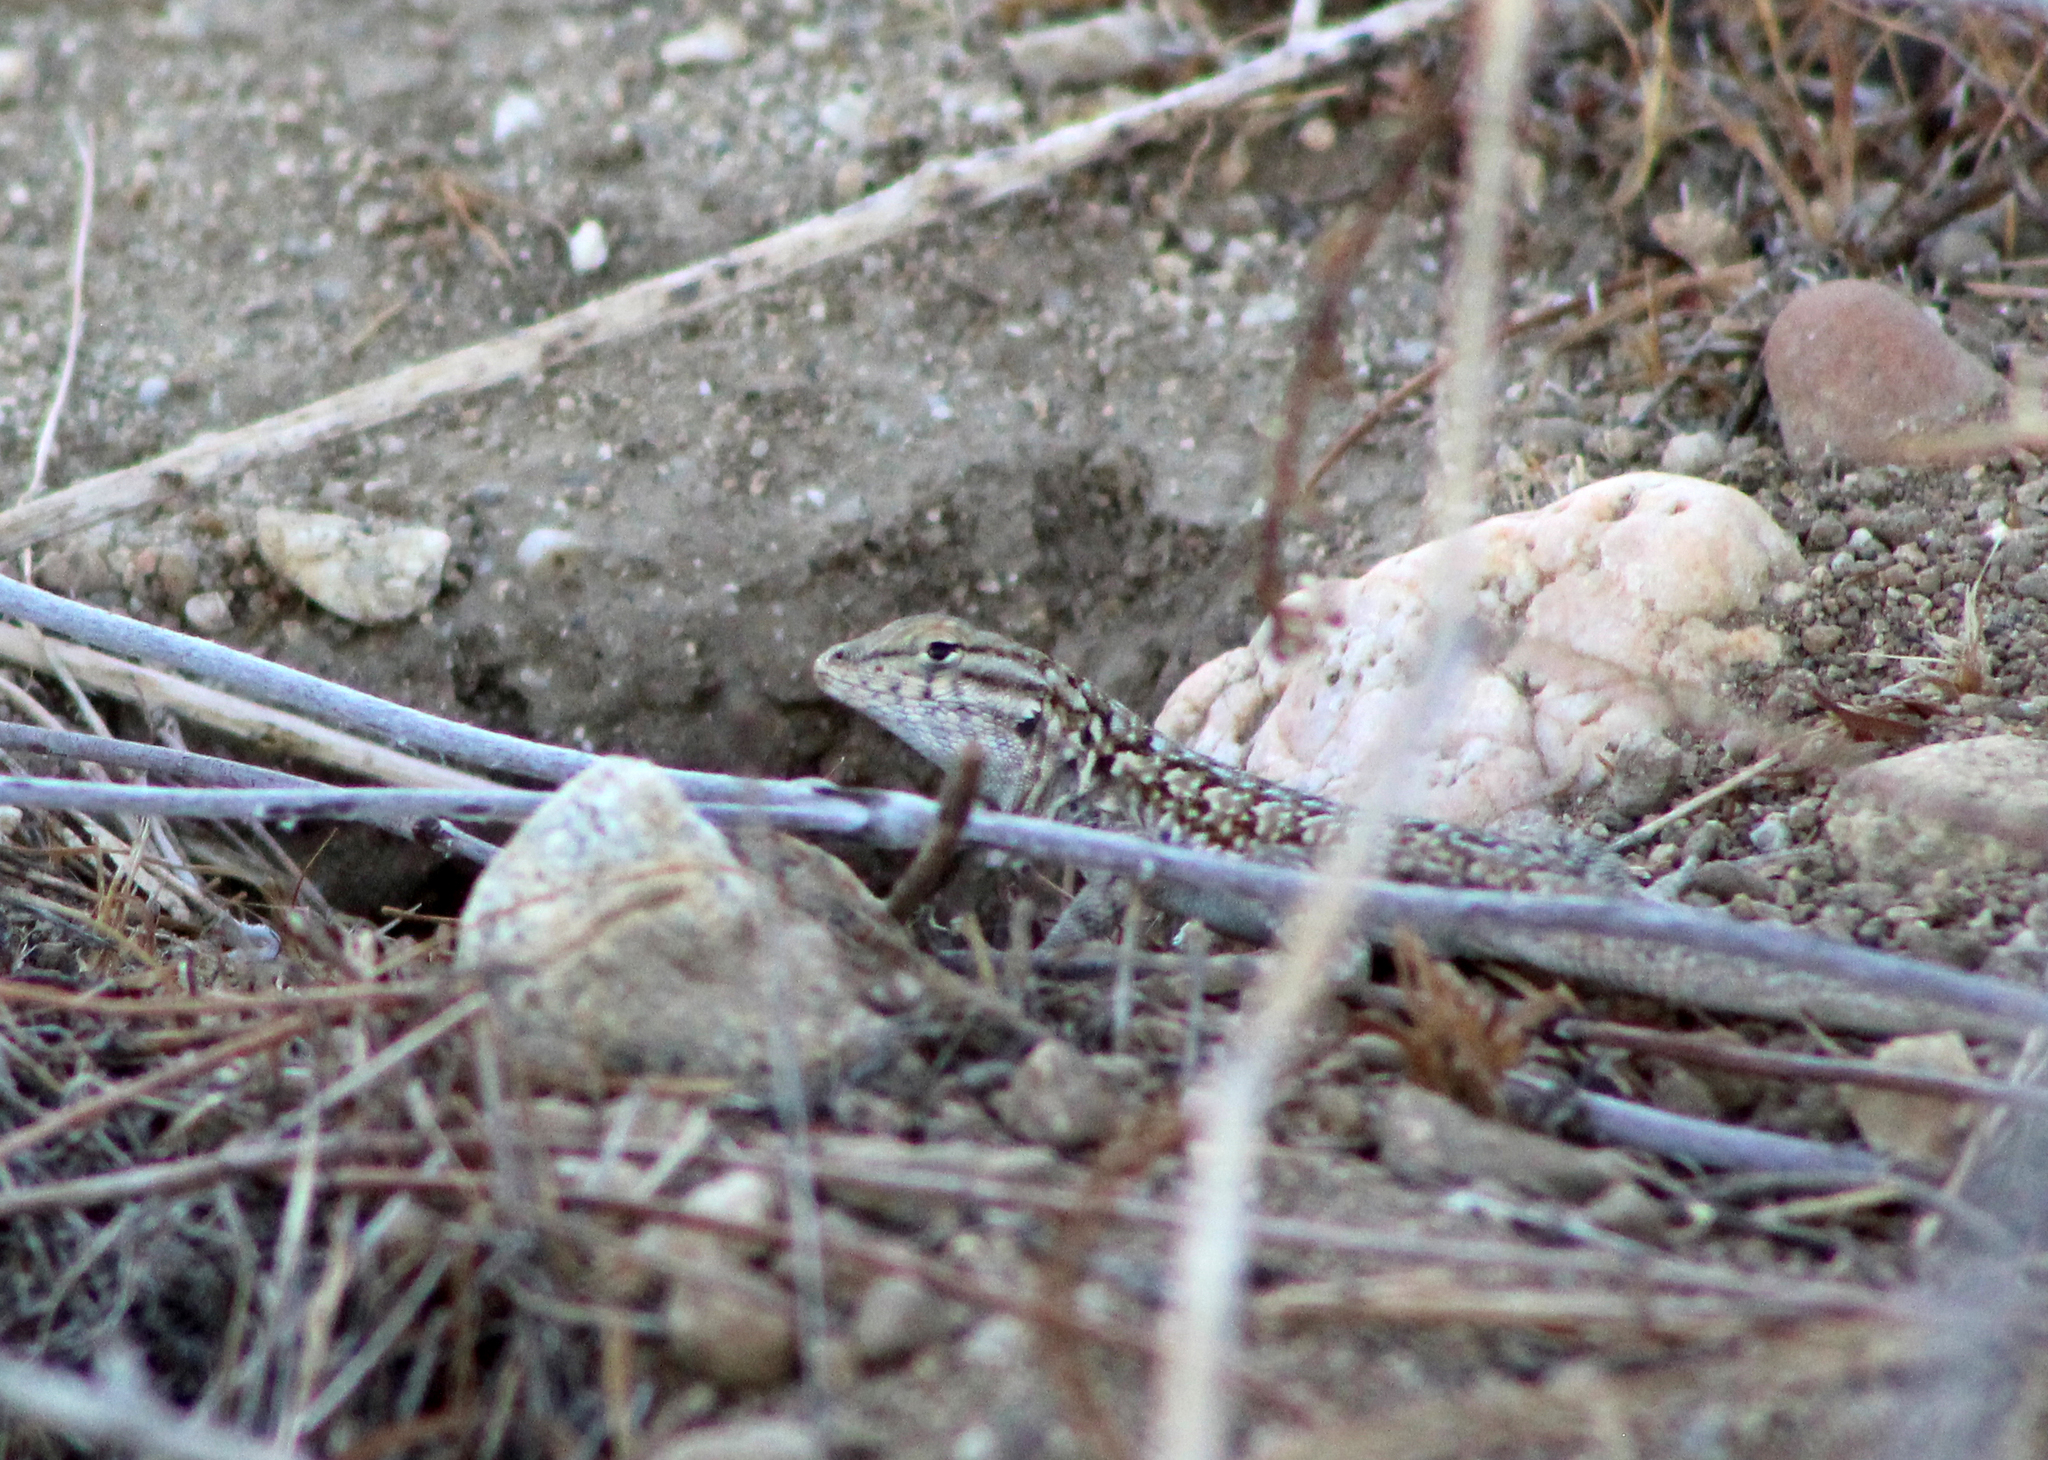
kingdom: Animalia
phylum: Chordata
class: Squamata
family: Phrynosomatidae
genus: Uta
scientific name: Uta stansburiana
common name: Side-blotched lizard
